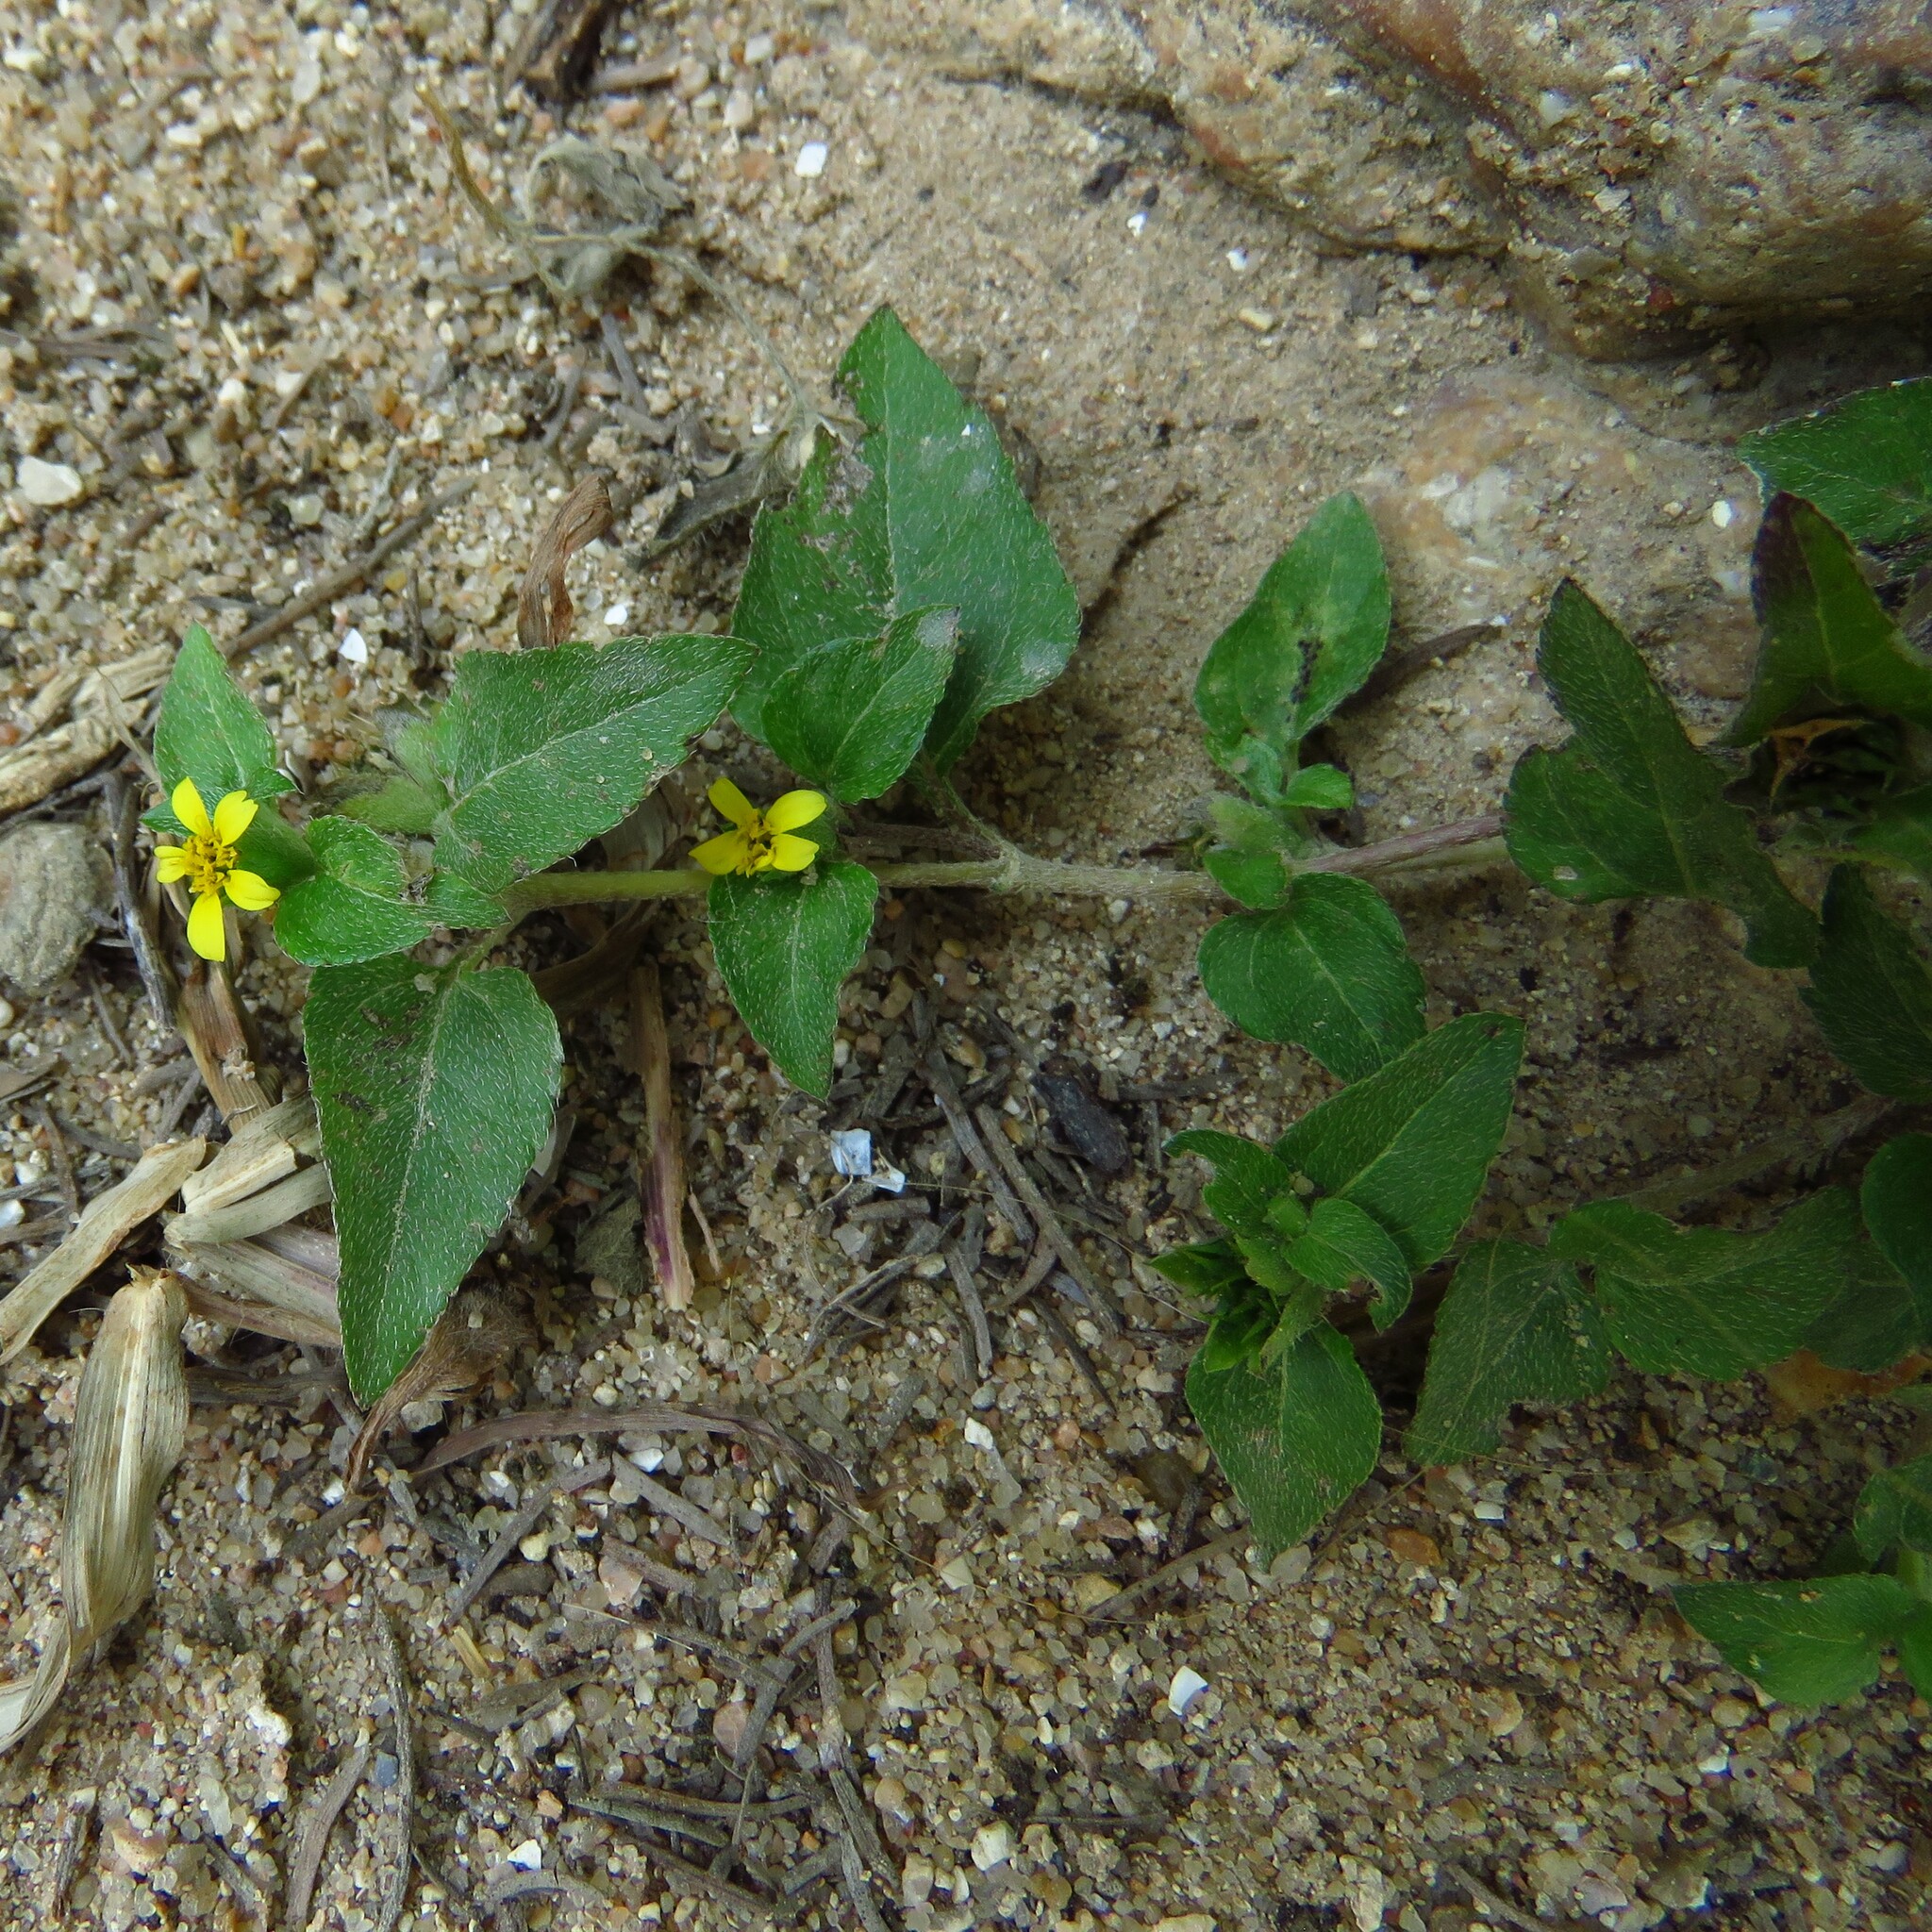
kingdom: Plantae
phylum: Tracheophyta
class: Magnoliopsida
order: Asterales
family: Asteraceae
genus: Calyptocarpus
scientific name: Calyptocarpus vialis
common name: Straggler daisy
